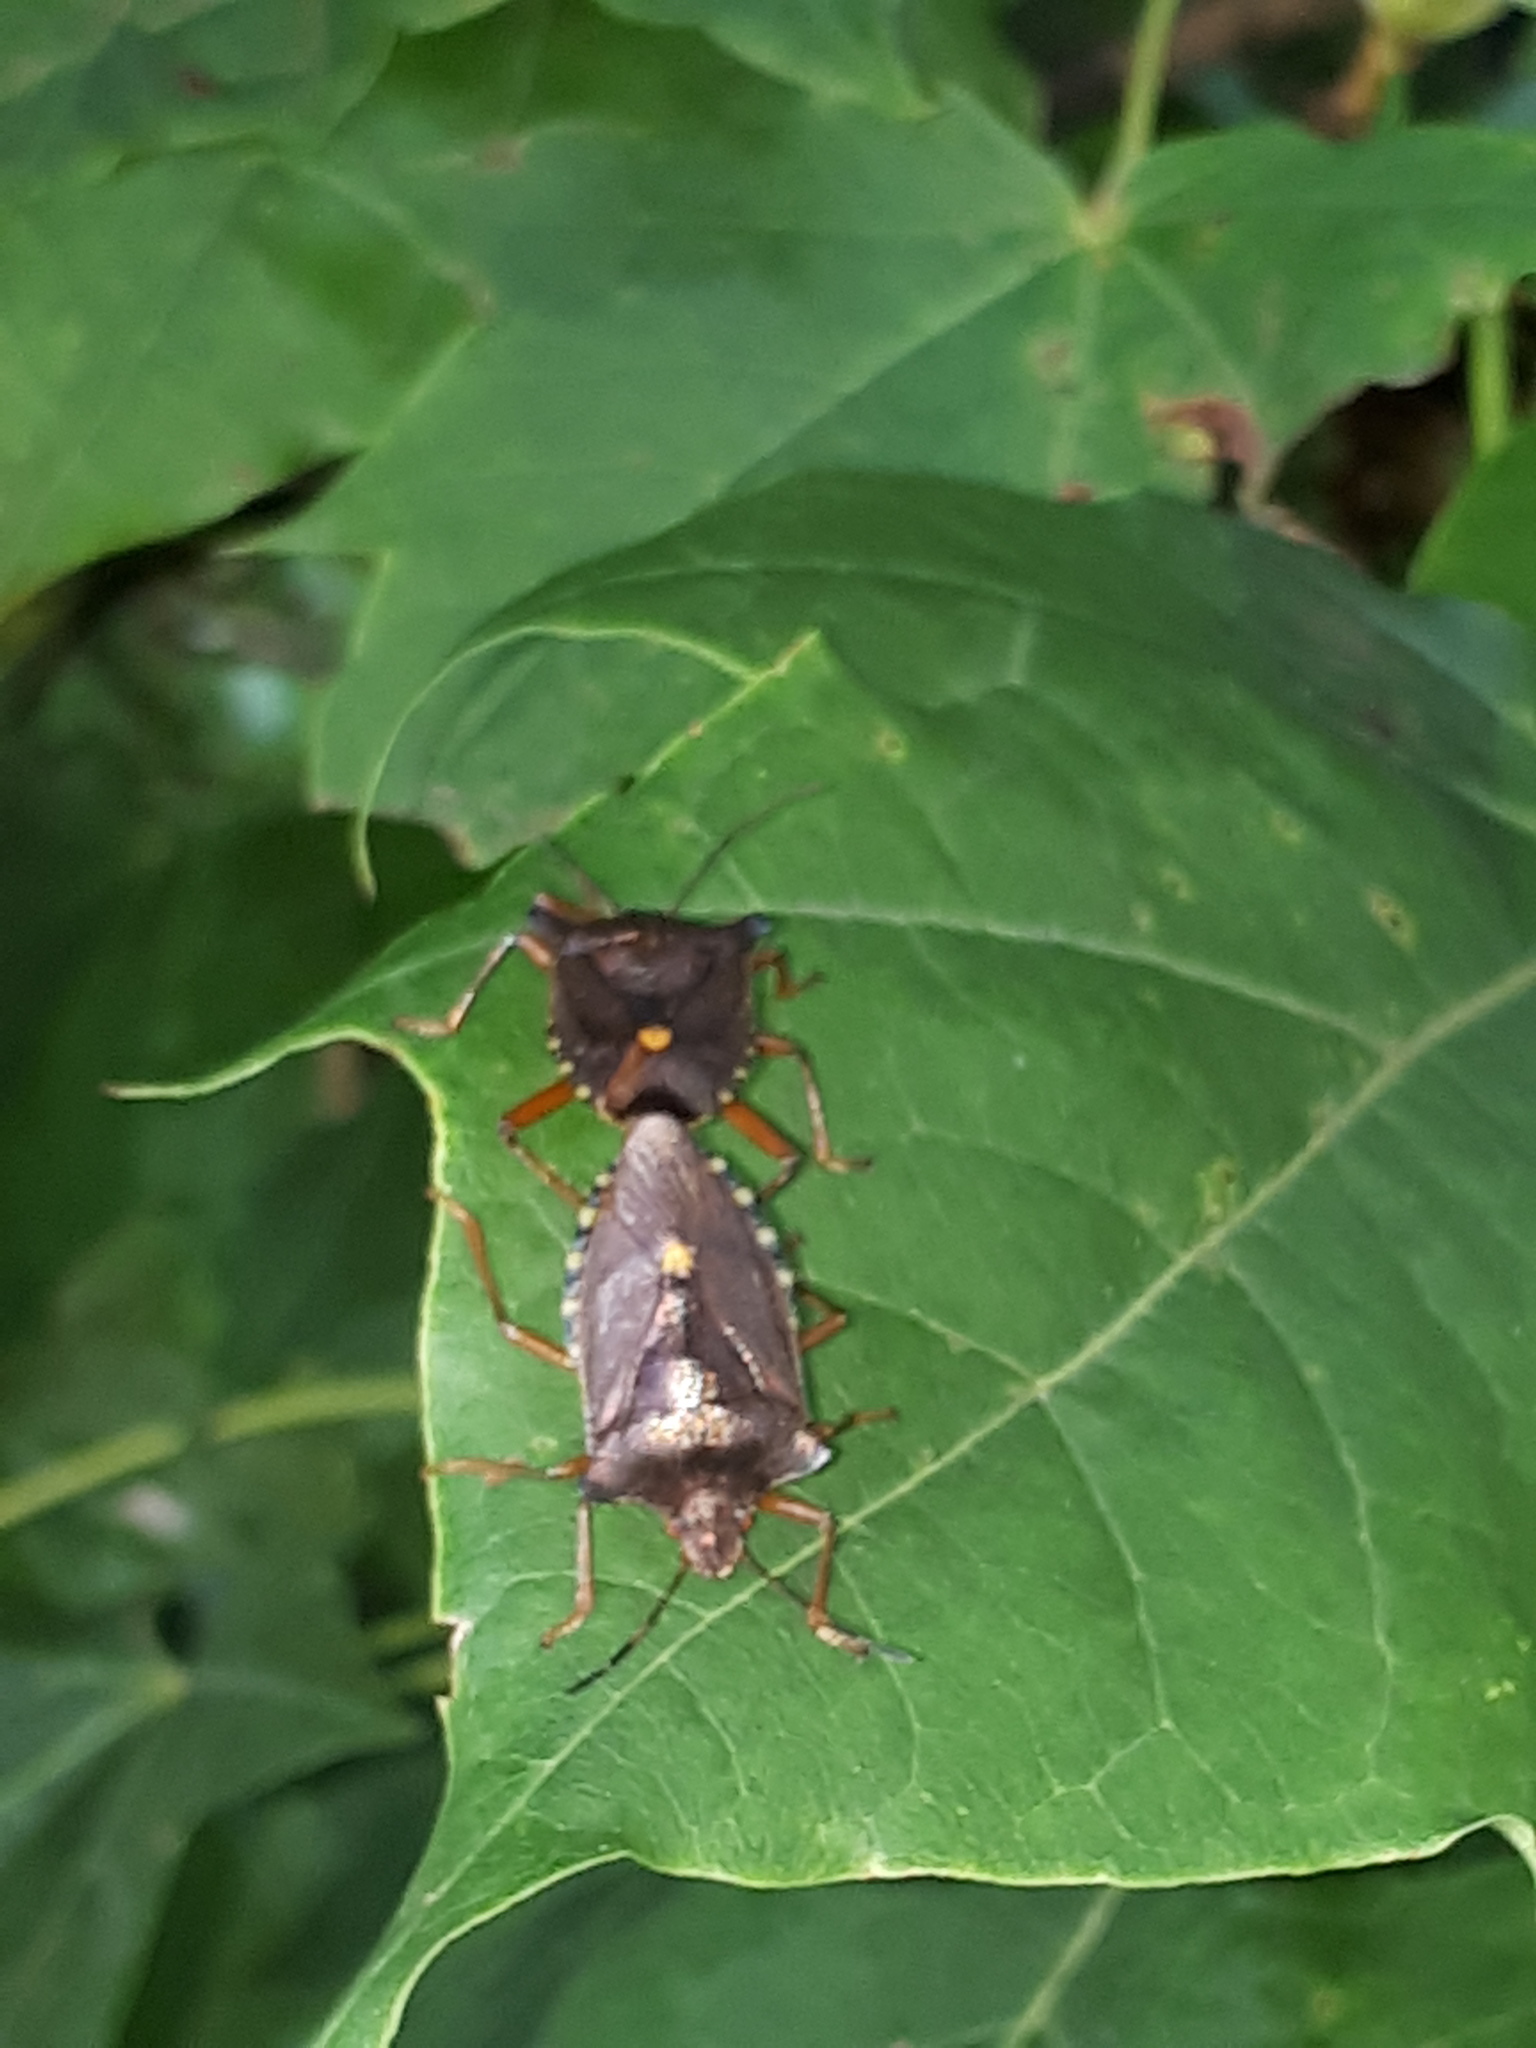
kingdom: Animalia
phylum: Arthropoda
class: Insecta
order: Hemiptera
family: Pentatomidae
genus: Pentatoma
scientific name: Pentatoma rufipes
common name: Forest bug
